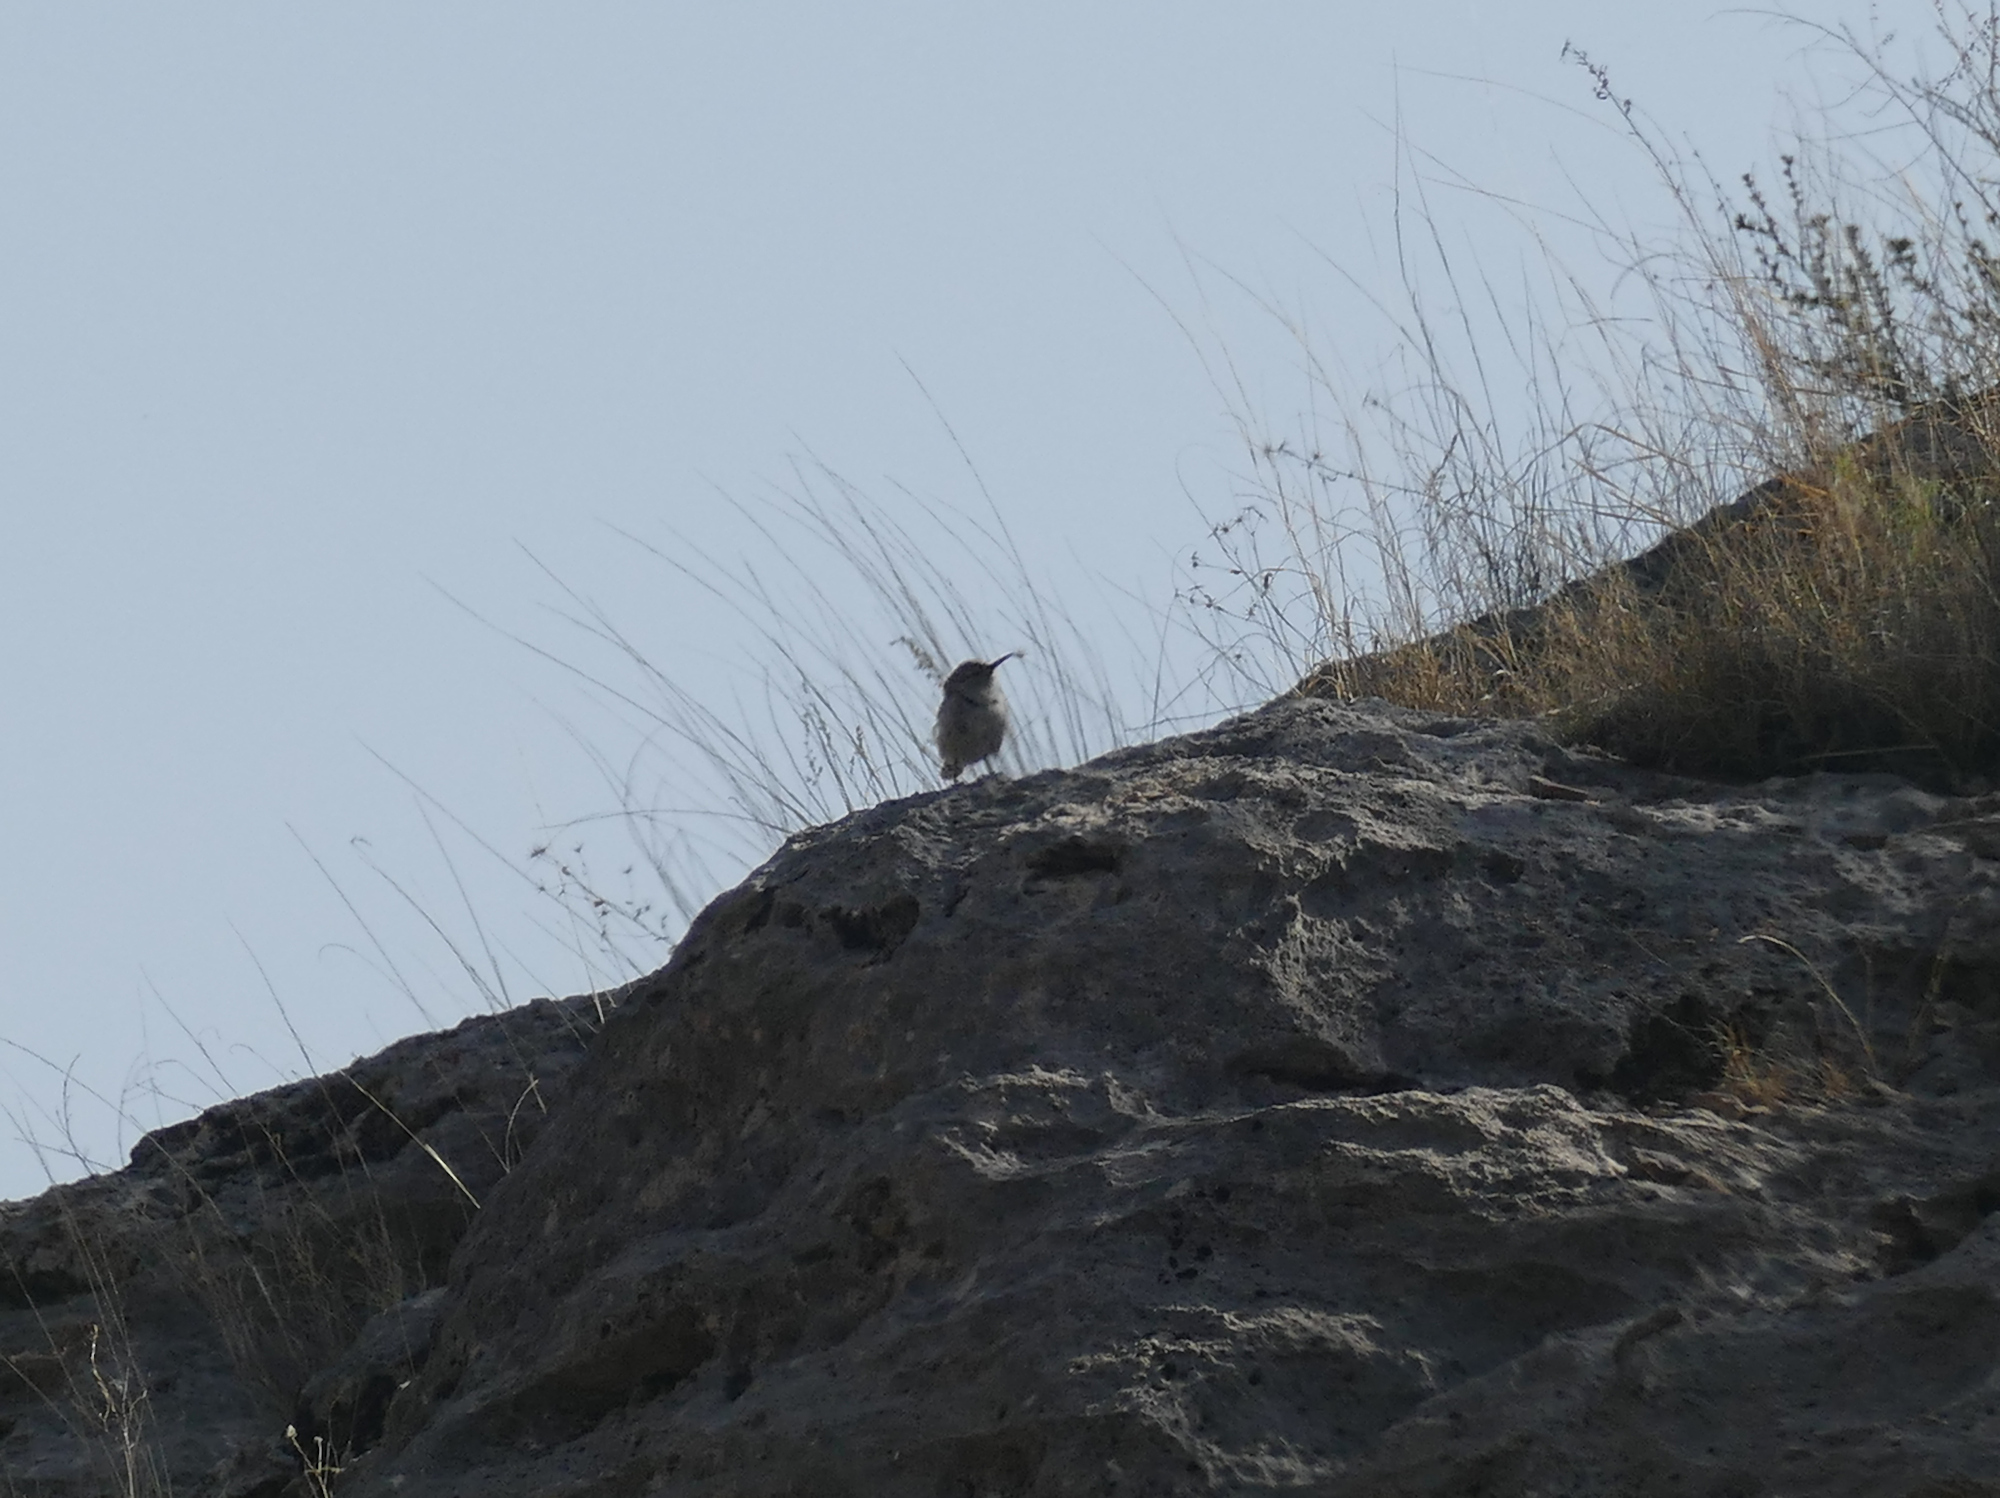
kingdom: Animalia
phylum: Chordata
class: Aves
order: Passeriformes
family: Troglodytidae
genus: Salpinctes
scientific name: Salpinctes obsoletus
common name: Rock wren
